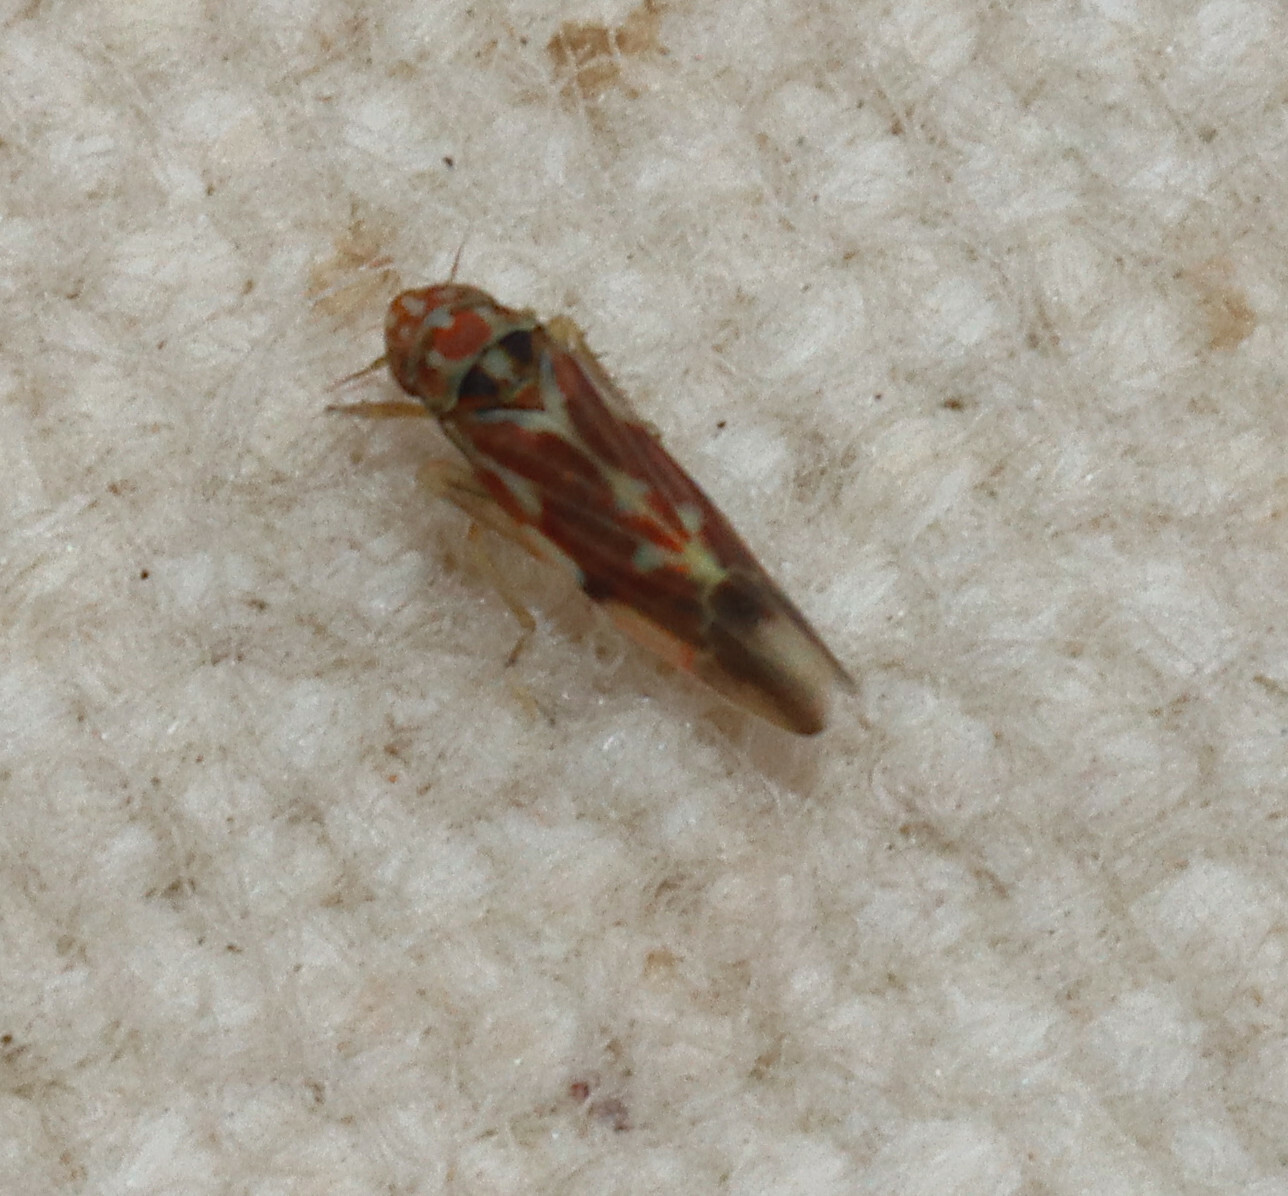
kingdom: Animalia
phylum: Arthropoda
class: Insecta
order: Hemiptera
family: Cicadellidae
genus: Erythroneura
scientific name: Erythroneura rosa
